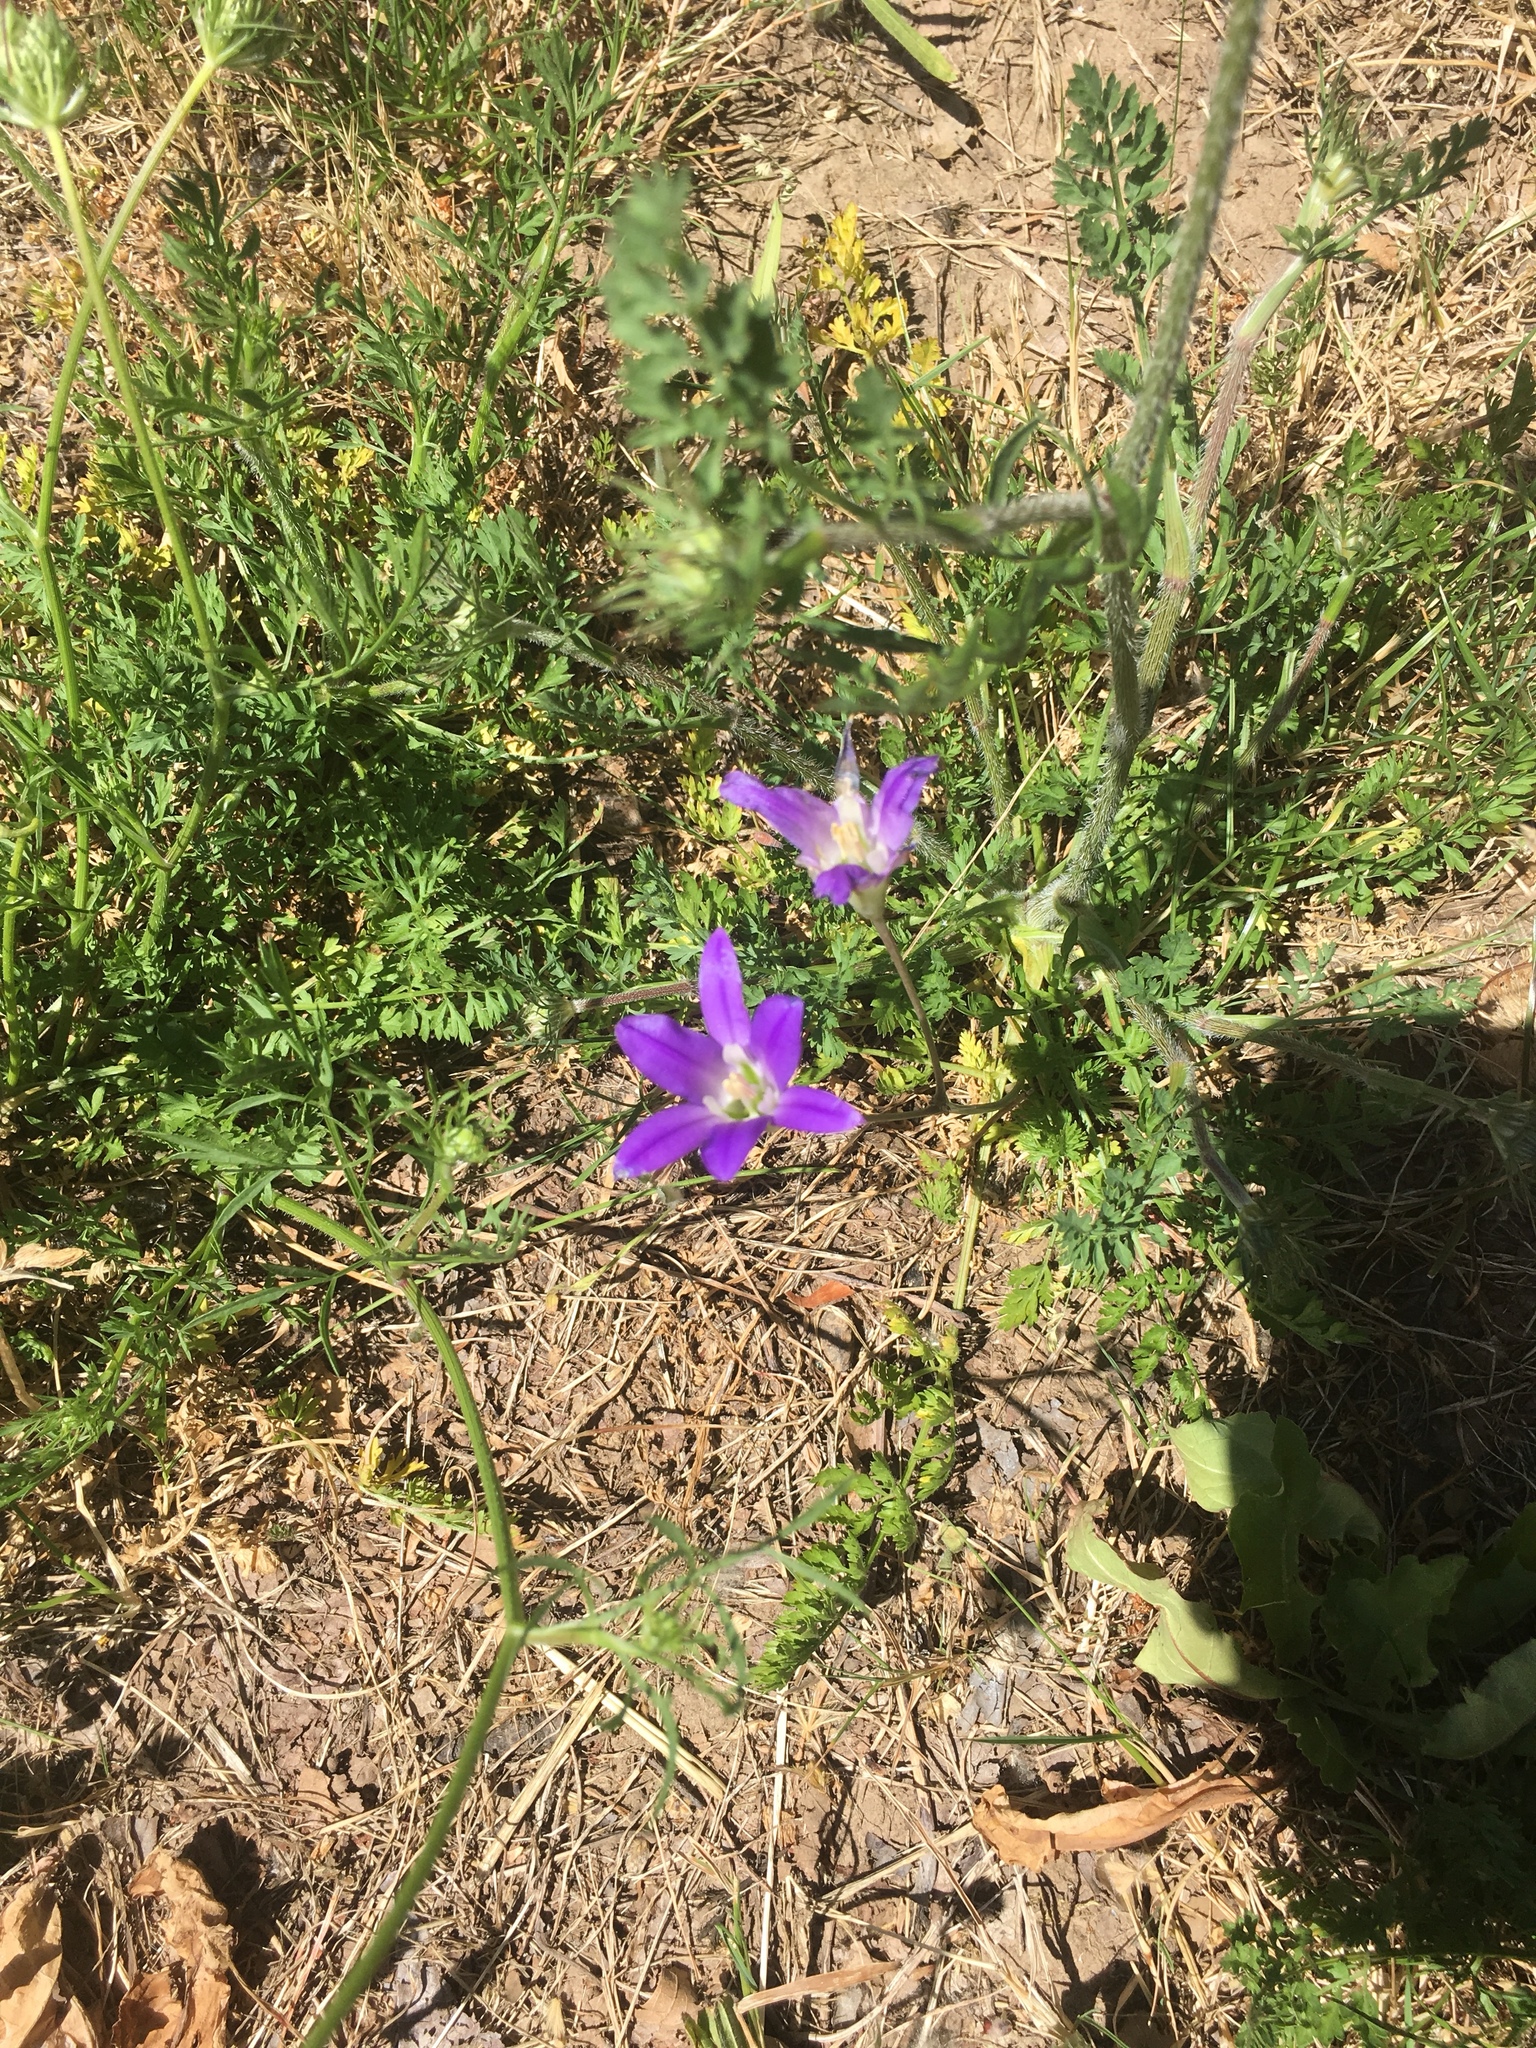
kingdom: Plantae
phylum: Tracheophyta
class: Liliopsida
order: Asparagales
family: Asparagaceae
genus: Brodiaea
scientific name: Brodiaea elegans
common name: Elegant cluster-lily
